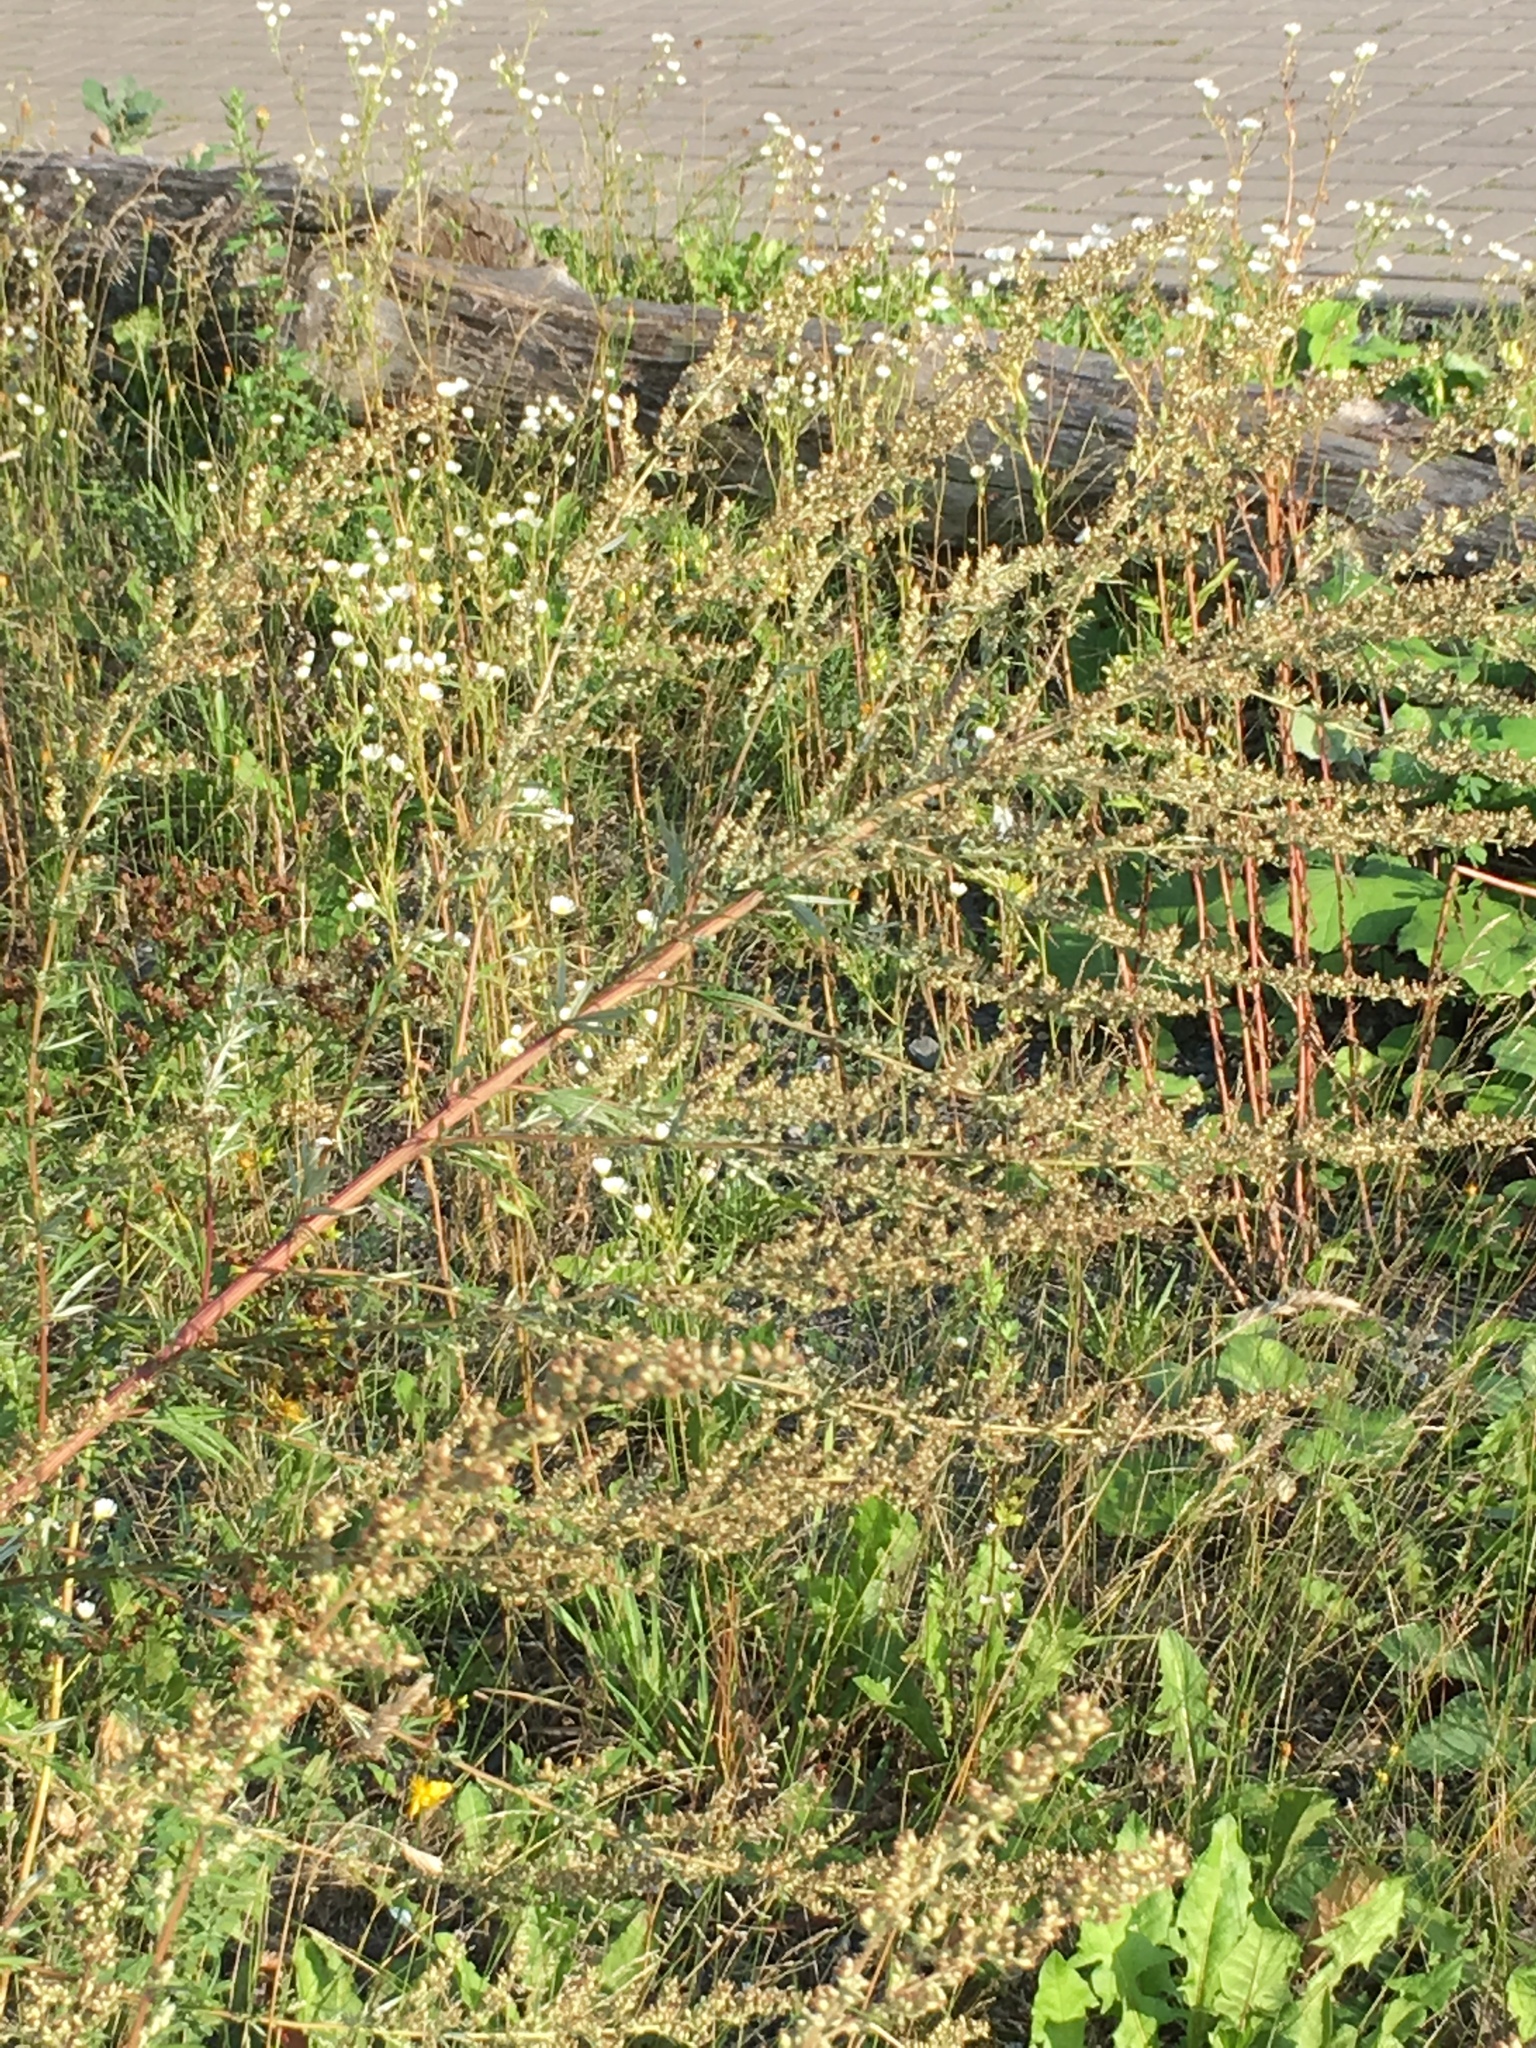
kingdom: Plantae
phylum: Tracheophyta
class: Magnoliopsida
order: Asterales
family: Asteraceae
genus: Artemisia
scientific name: Artemisia vulgaris
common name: Mugwort
